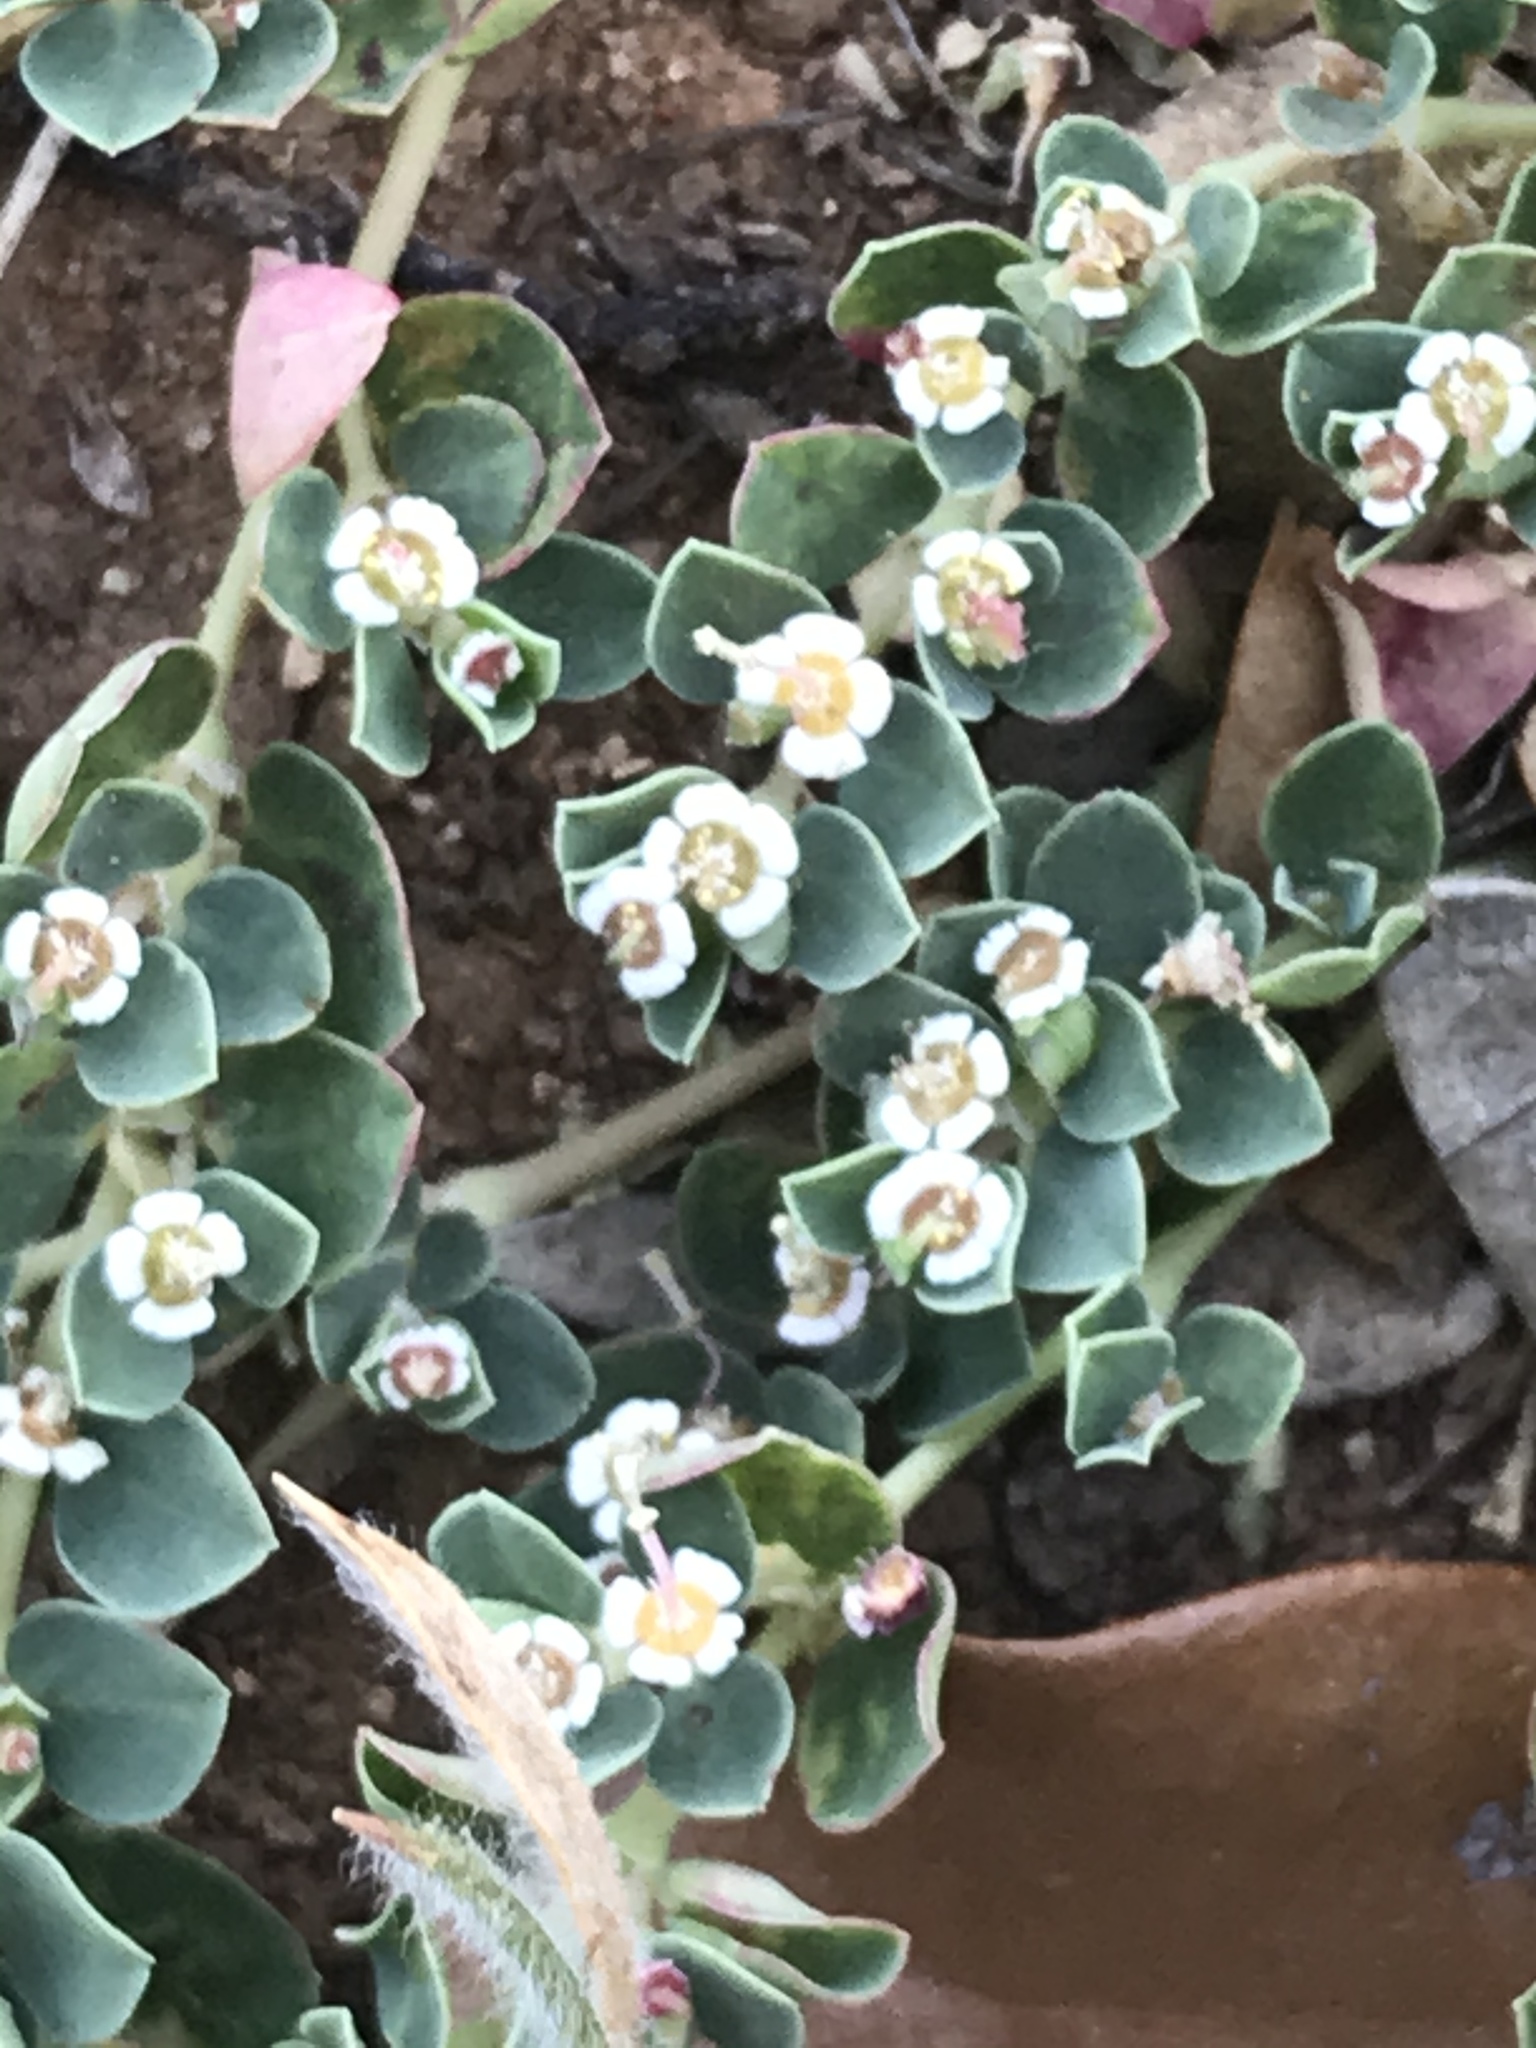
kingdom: Plantae
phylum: Tracheophyta
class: Magnoliopsida
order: Malpighiales
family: Euphorbiaceae
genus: Euphorbia
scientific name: Euphorbia albomarginata
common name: Whitemargin sandmat
